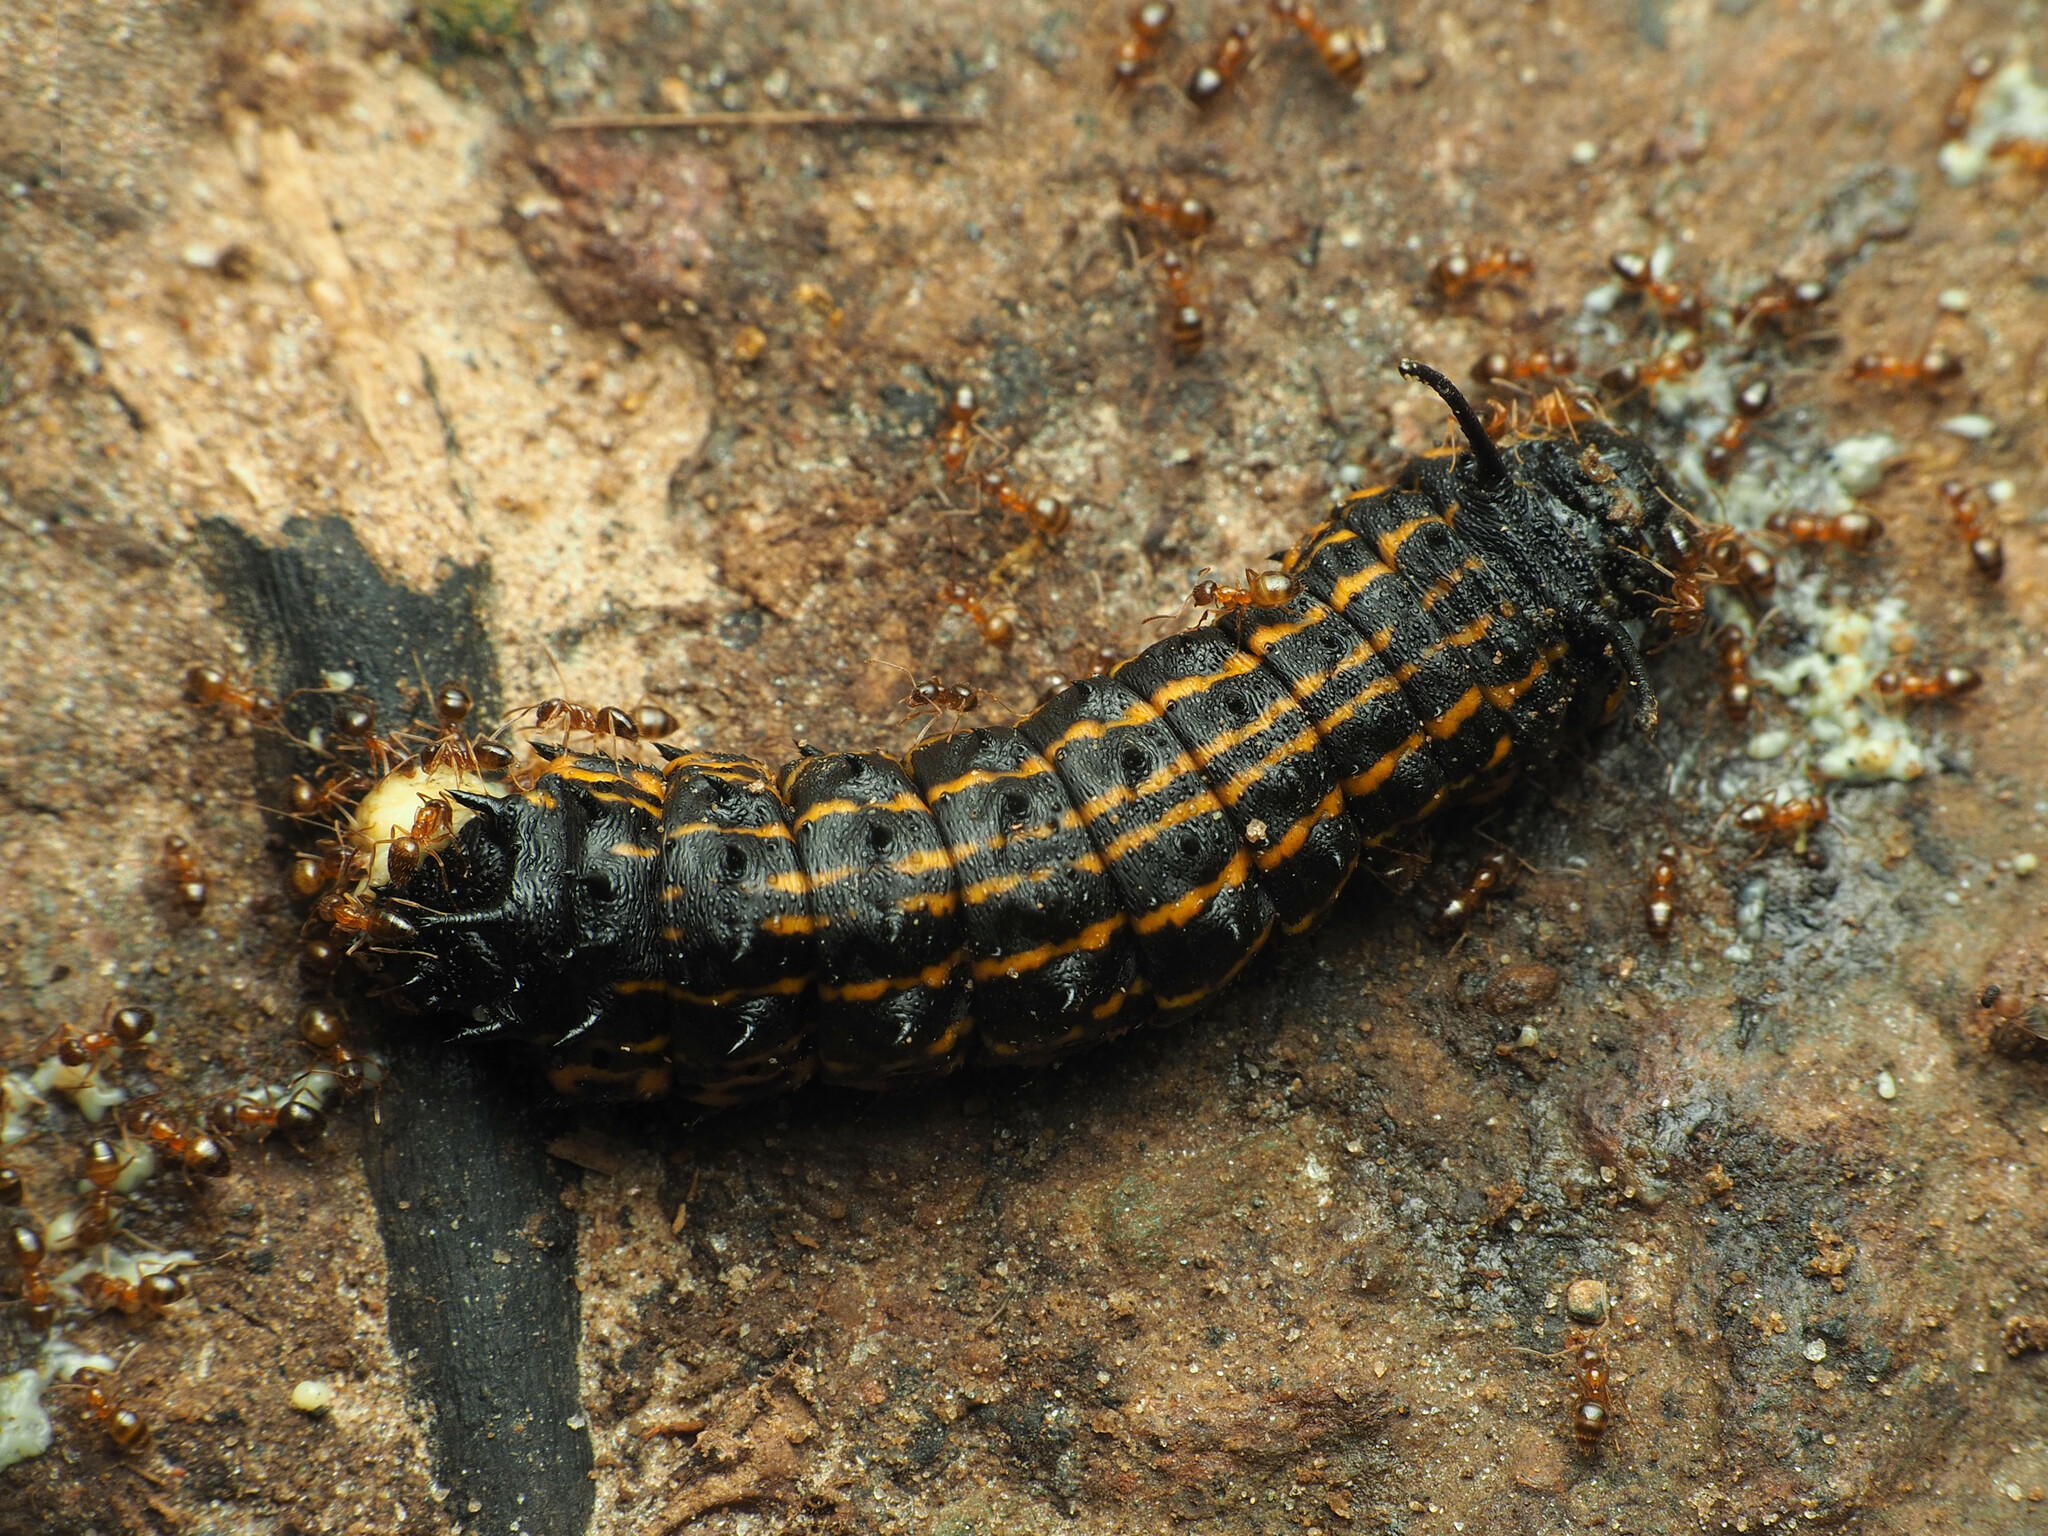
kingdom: Animalia
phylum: Arthropoda
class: Insecta
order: Lepidoptera
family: Saturniidae
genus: Anisota
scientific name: Anisota senatoria
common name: Orange-striped oakworm moth
